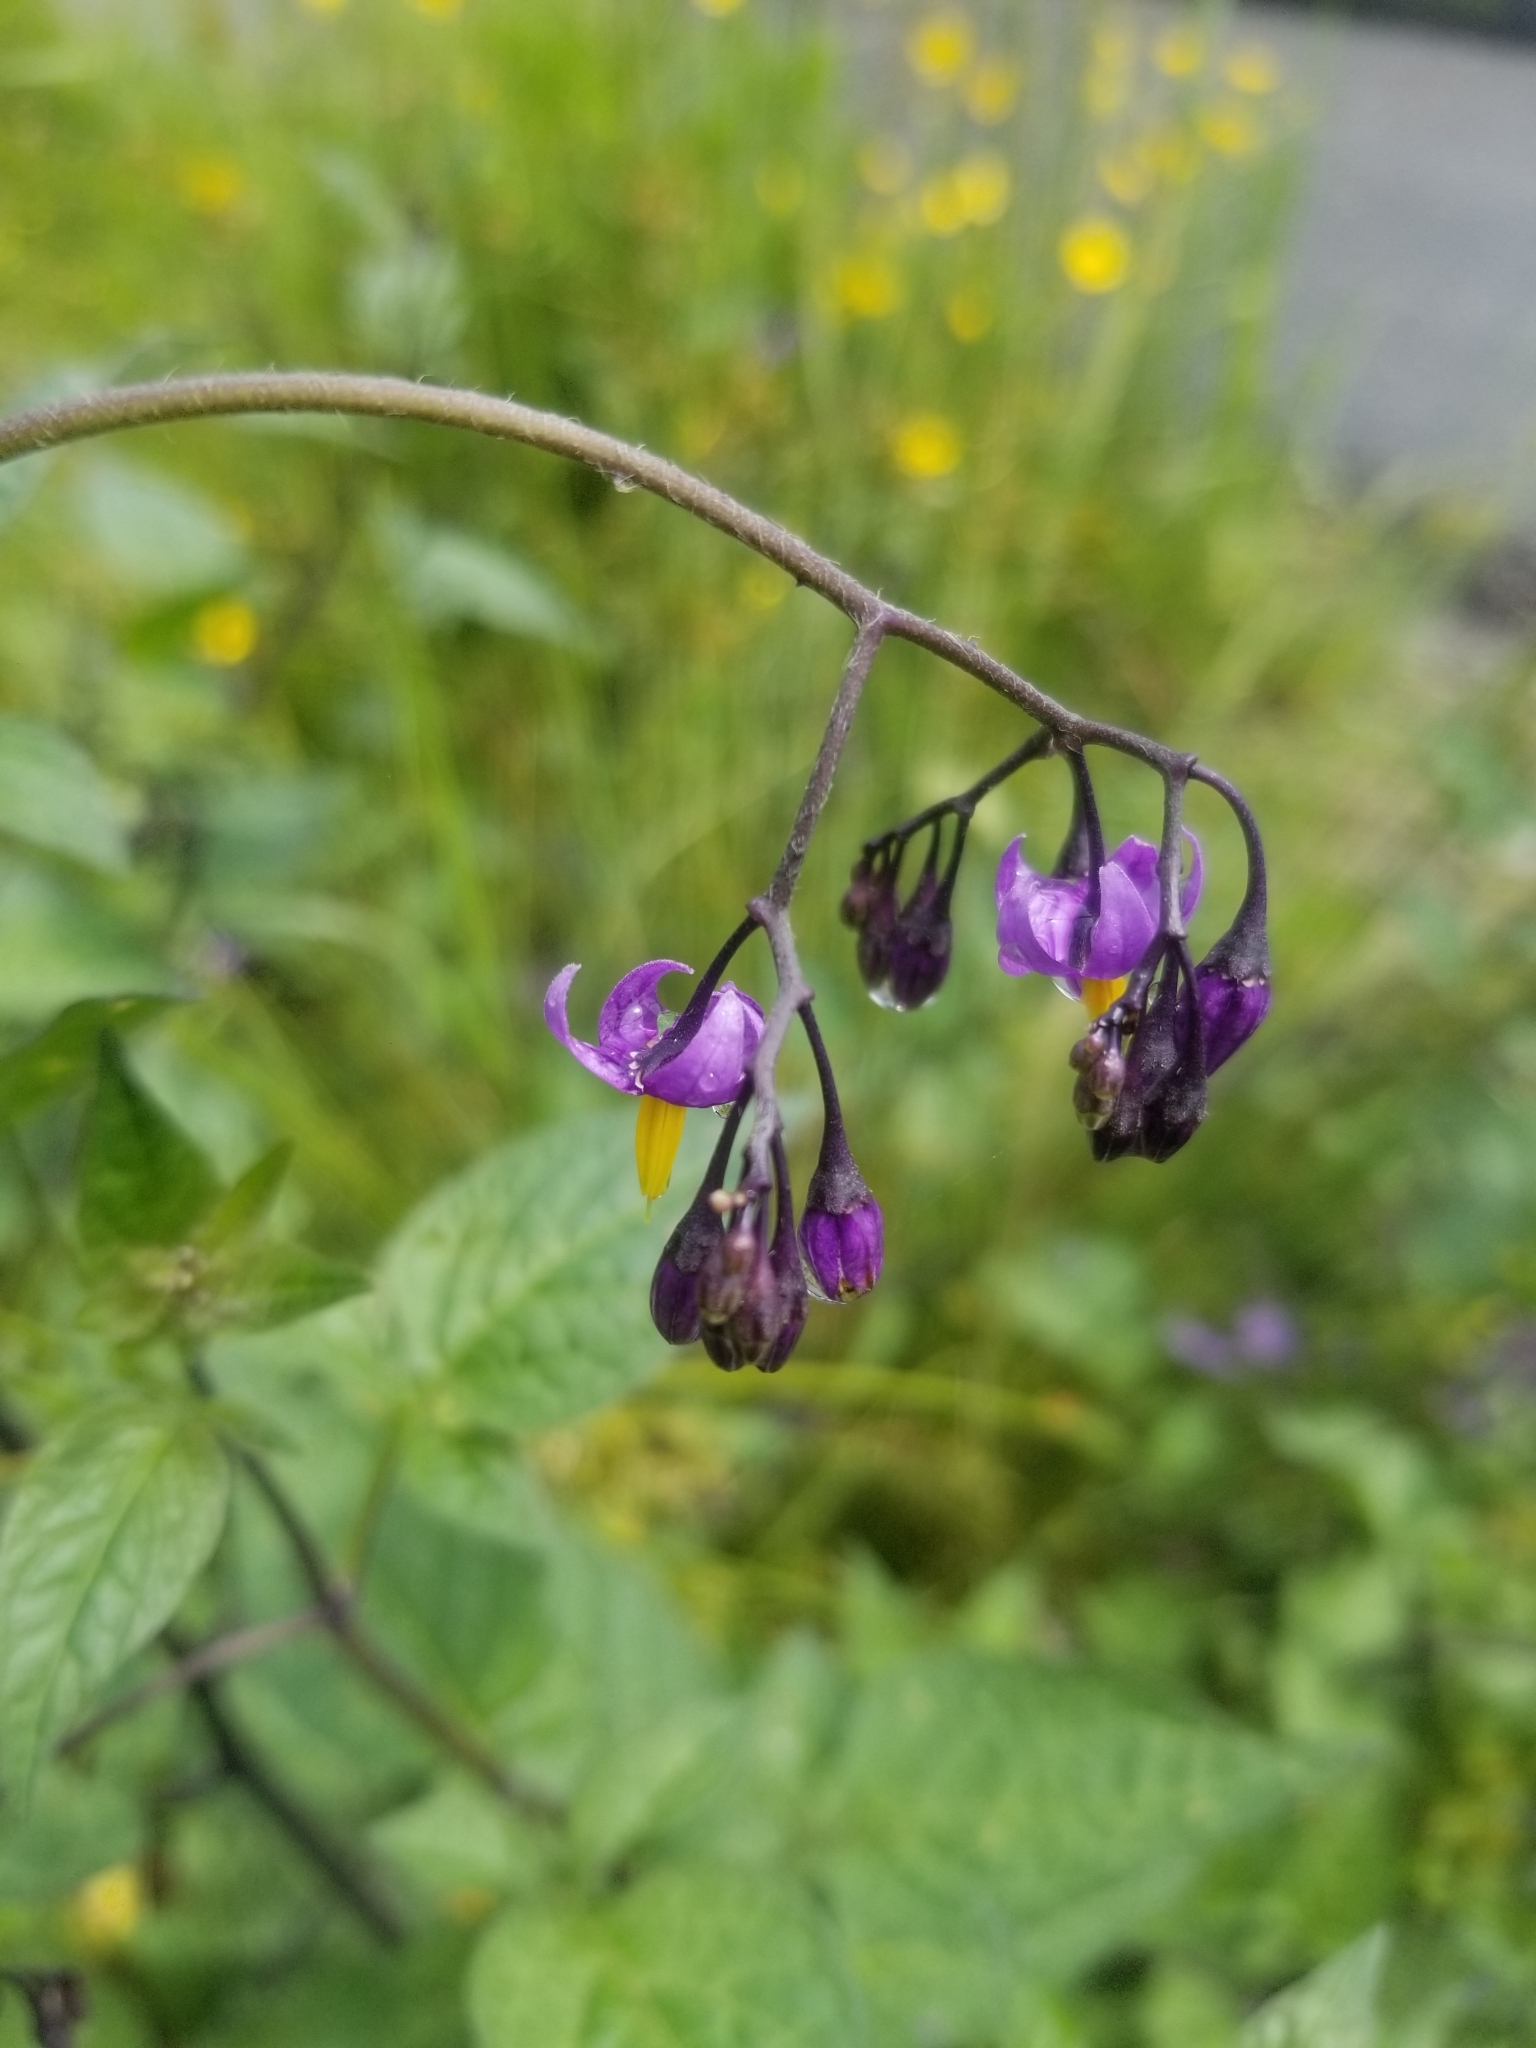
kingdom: Plantae
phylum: Tracheophyta
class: Magnoliopsida
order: Solanales
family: Solanaceae
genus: Solanum
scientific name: Solanum dulcamara
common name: Climbing nightshade
